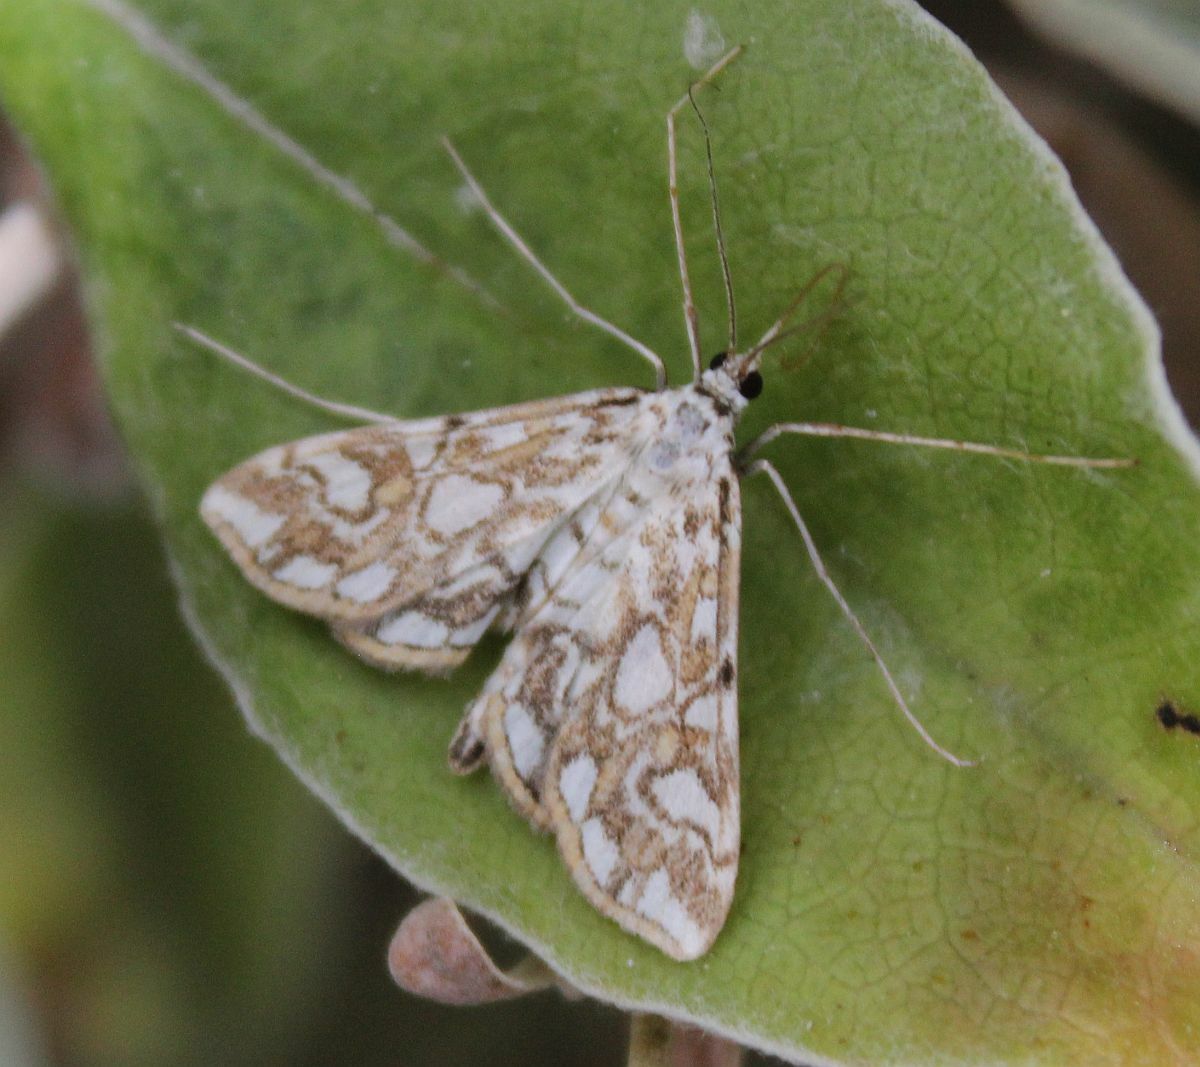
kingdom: Animalia
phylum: Arthropoda
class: Insecta
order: Lepidoptera
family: Crambidae
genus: Elophila
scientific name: Elophila nymphaeata
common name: Brown china-mark
